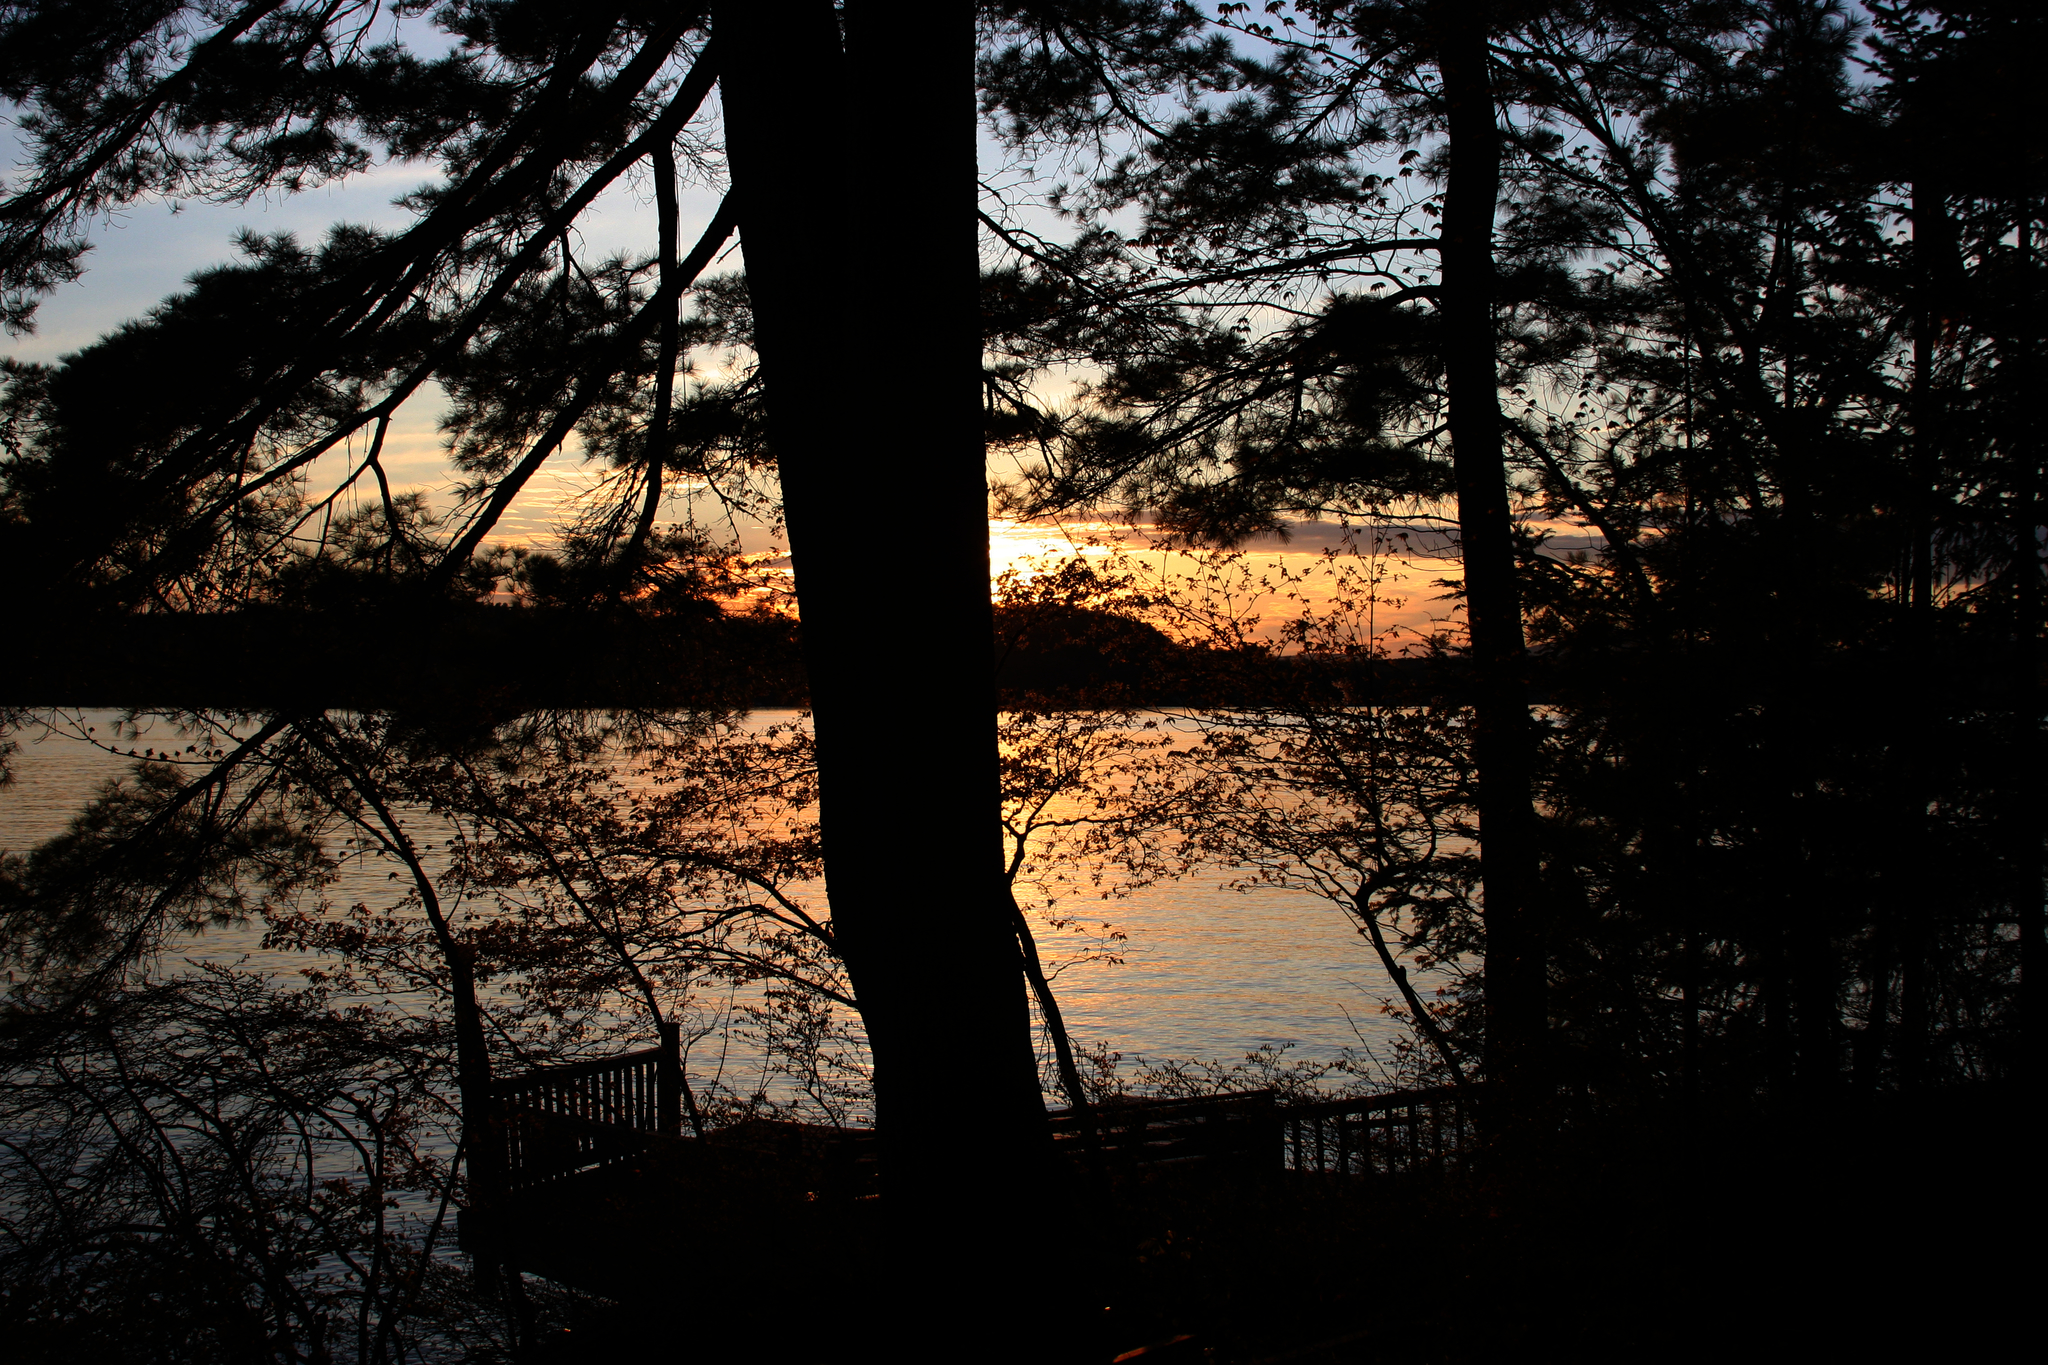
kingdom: Plantae
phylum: Tracheophyta
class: Pinopsida
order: Pinales
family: Pinaceae
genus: Pinus
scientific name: Pinus strobus
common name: Weymouth pine
